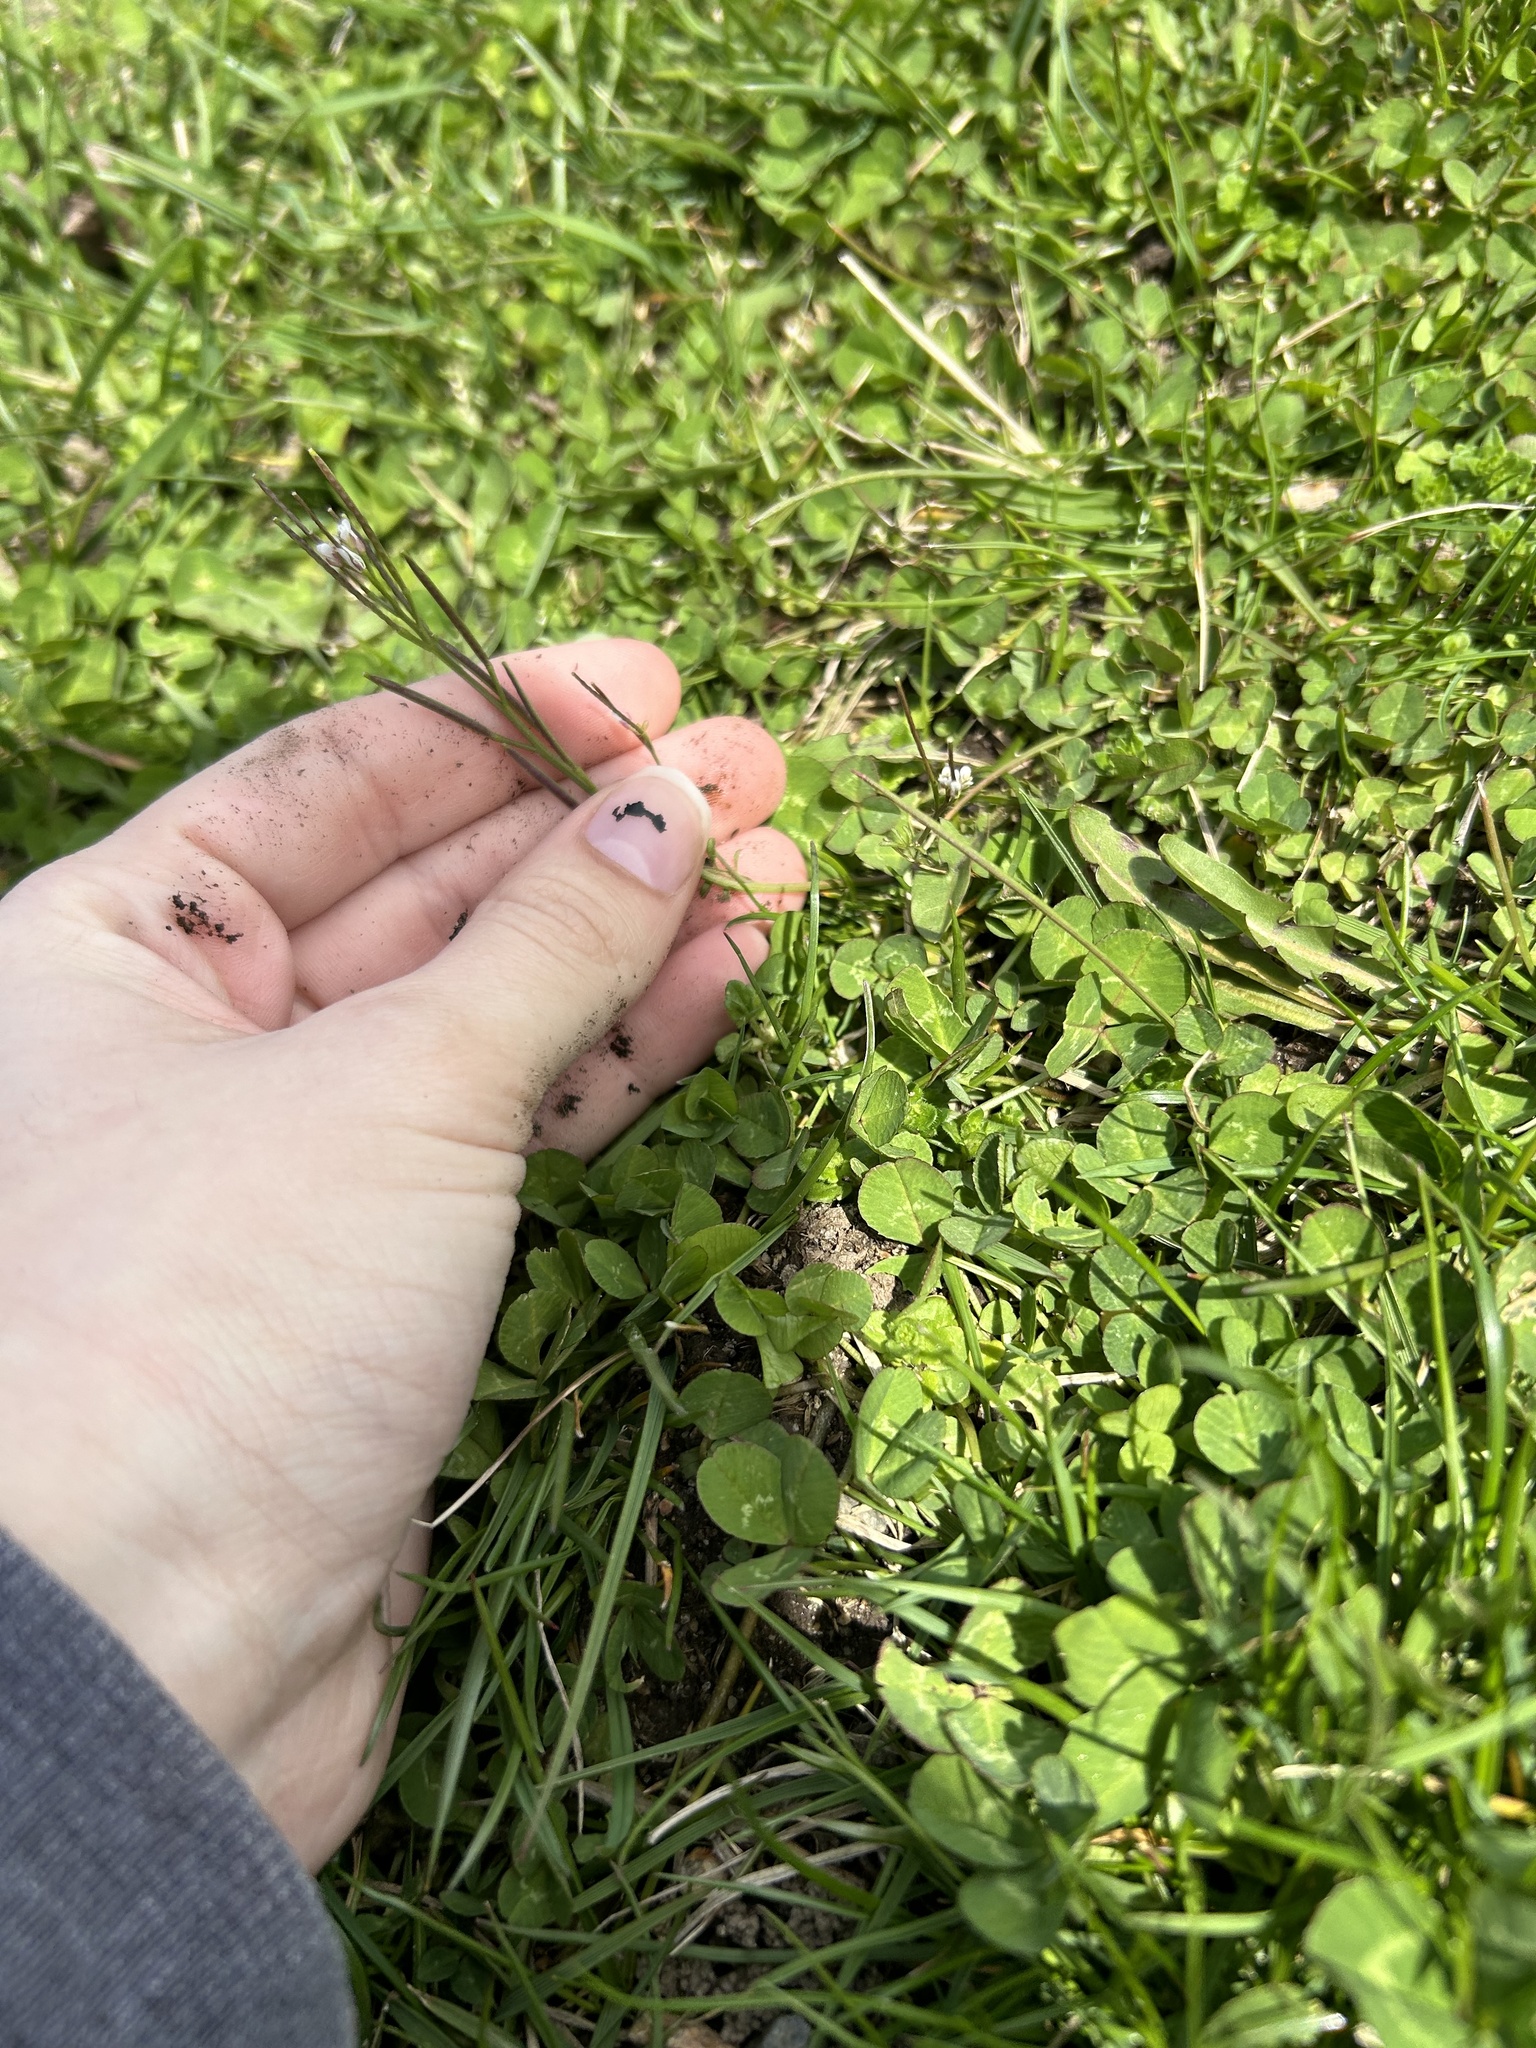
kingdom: Plantae
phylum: Tracheophyta
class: Magnoliopsida
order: Brassicales
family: Brassicaceae
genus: Cardamine
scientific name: Cardamine hirsuta
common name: Hairy bittercress
